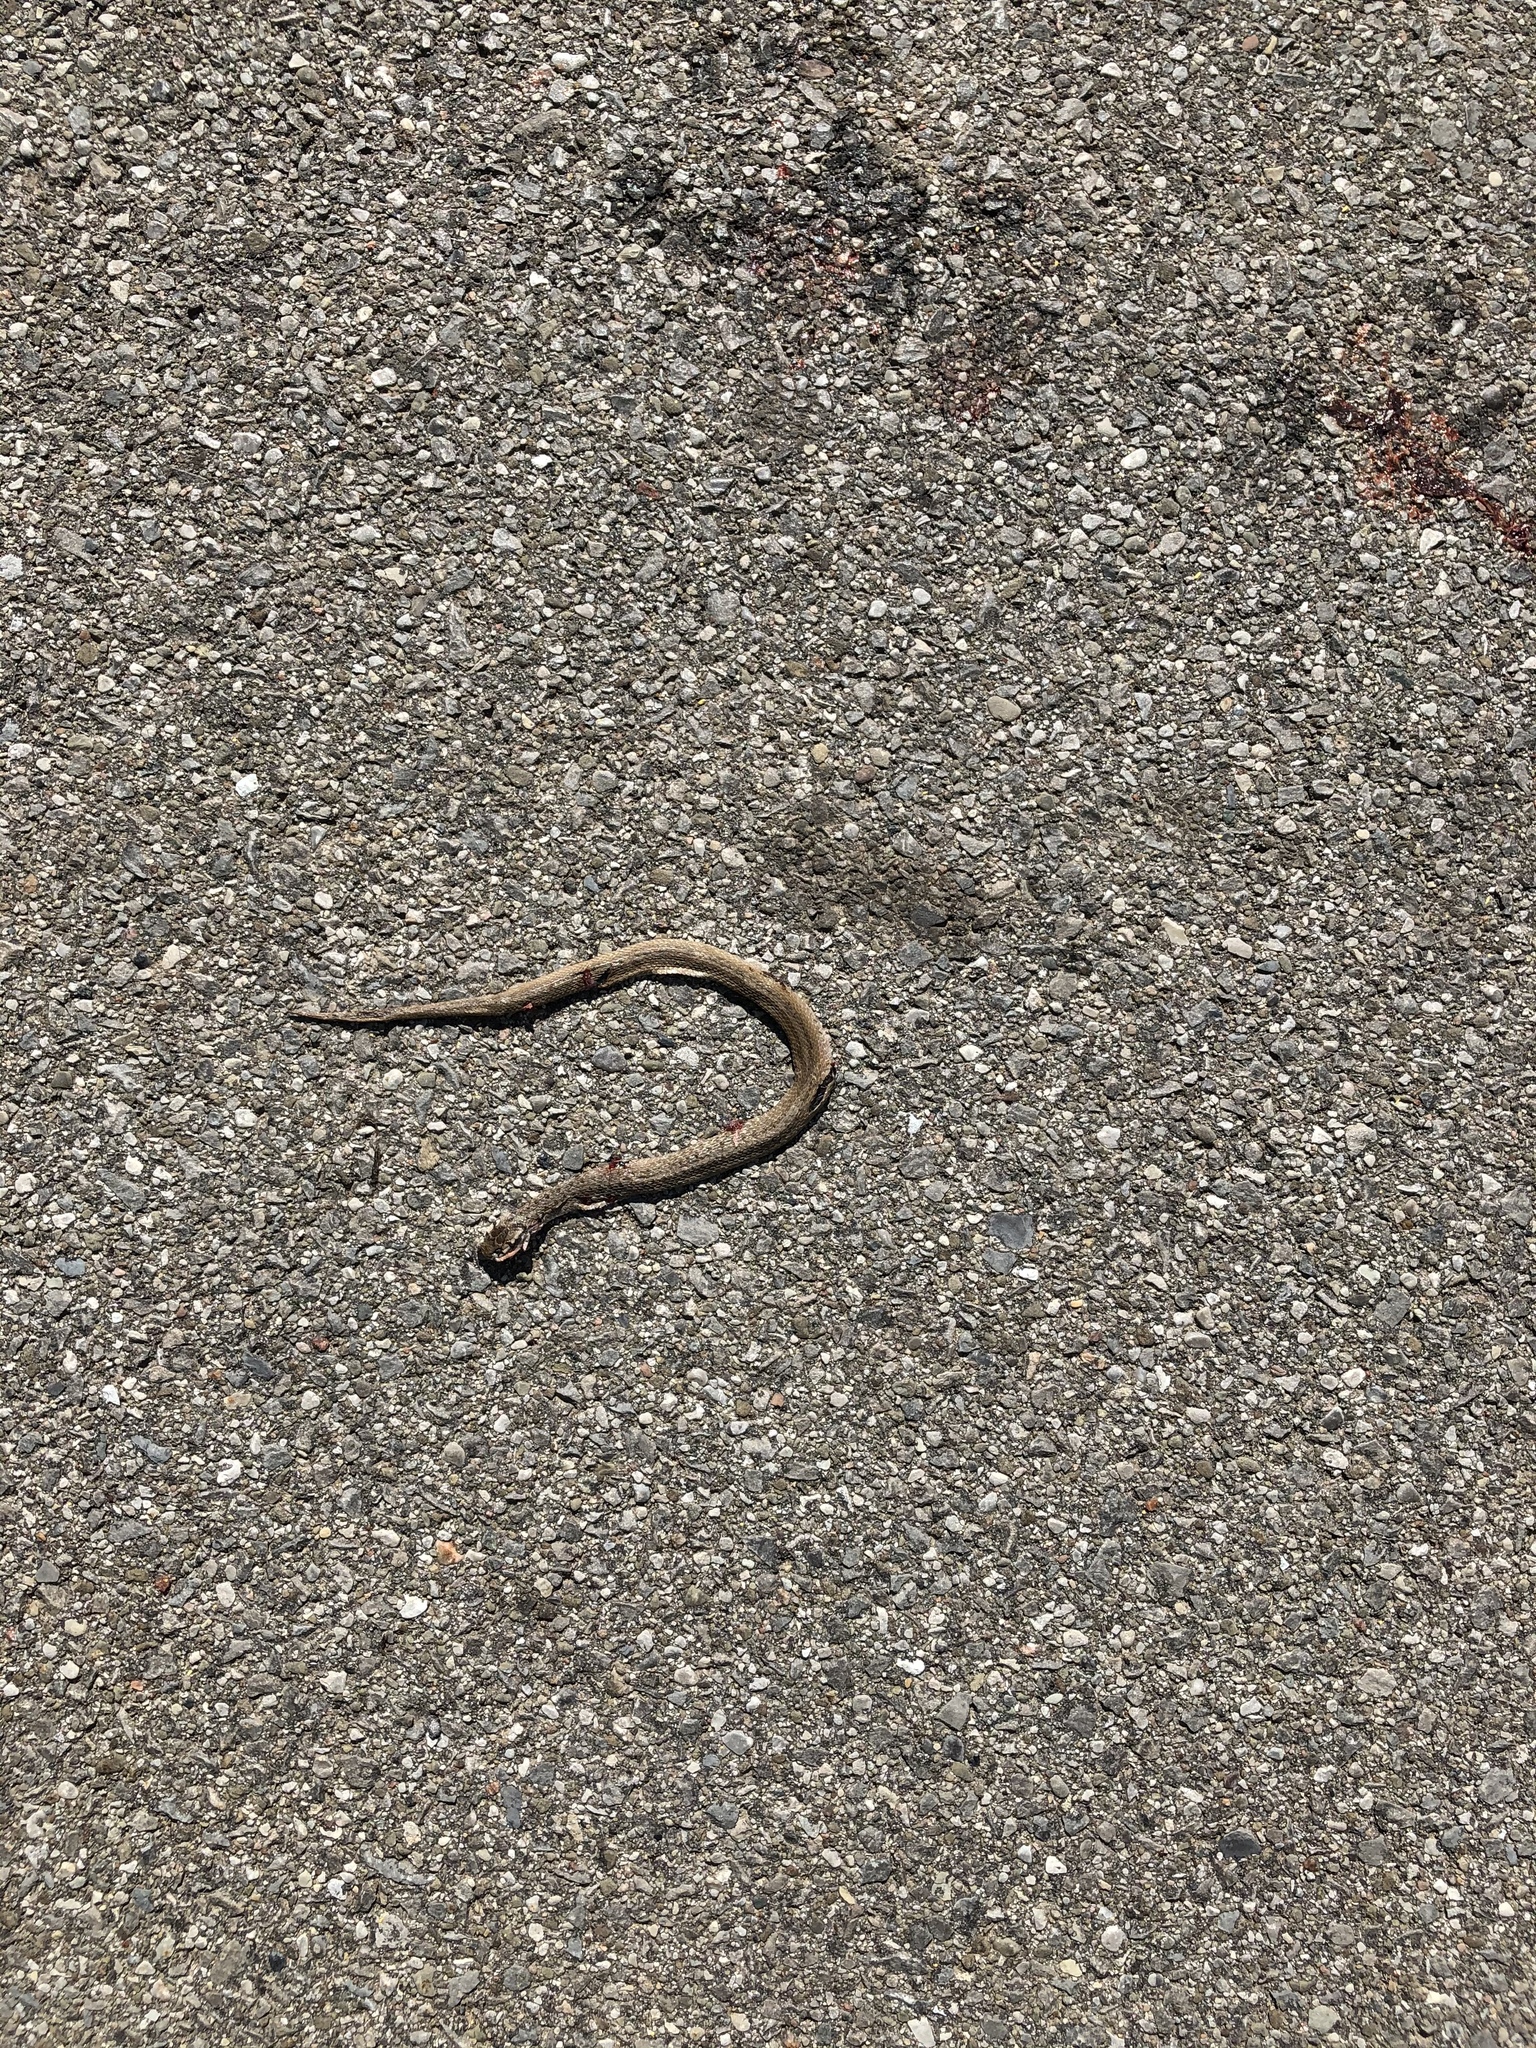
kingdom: Animalia
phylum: Chordata
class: Squamata
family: Colubridae
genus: Storeria
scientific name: Storeria dekayi
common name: (dekay’s) brown snake
